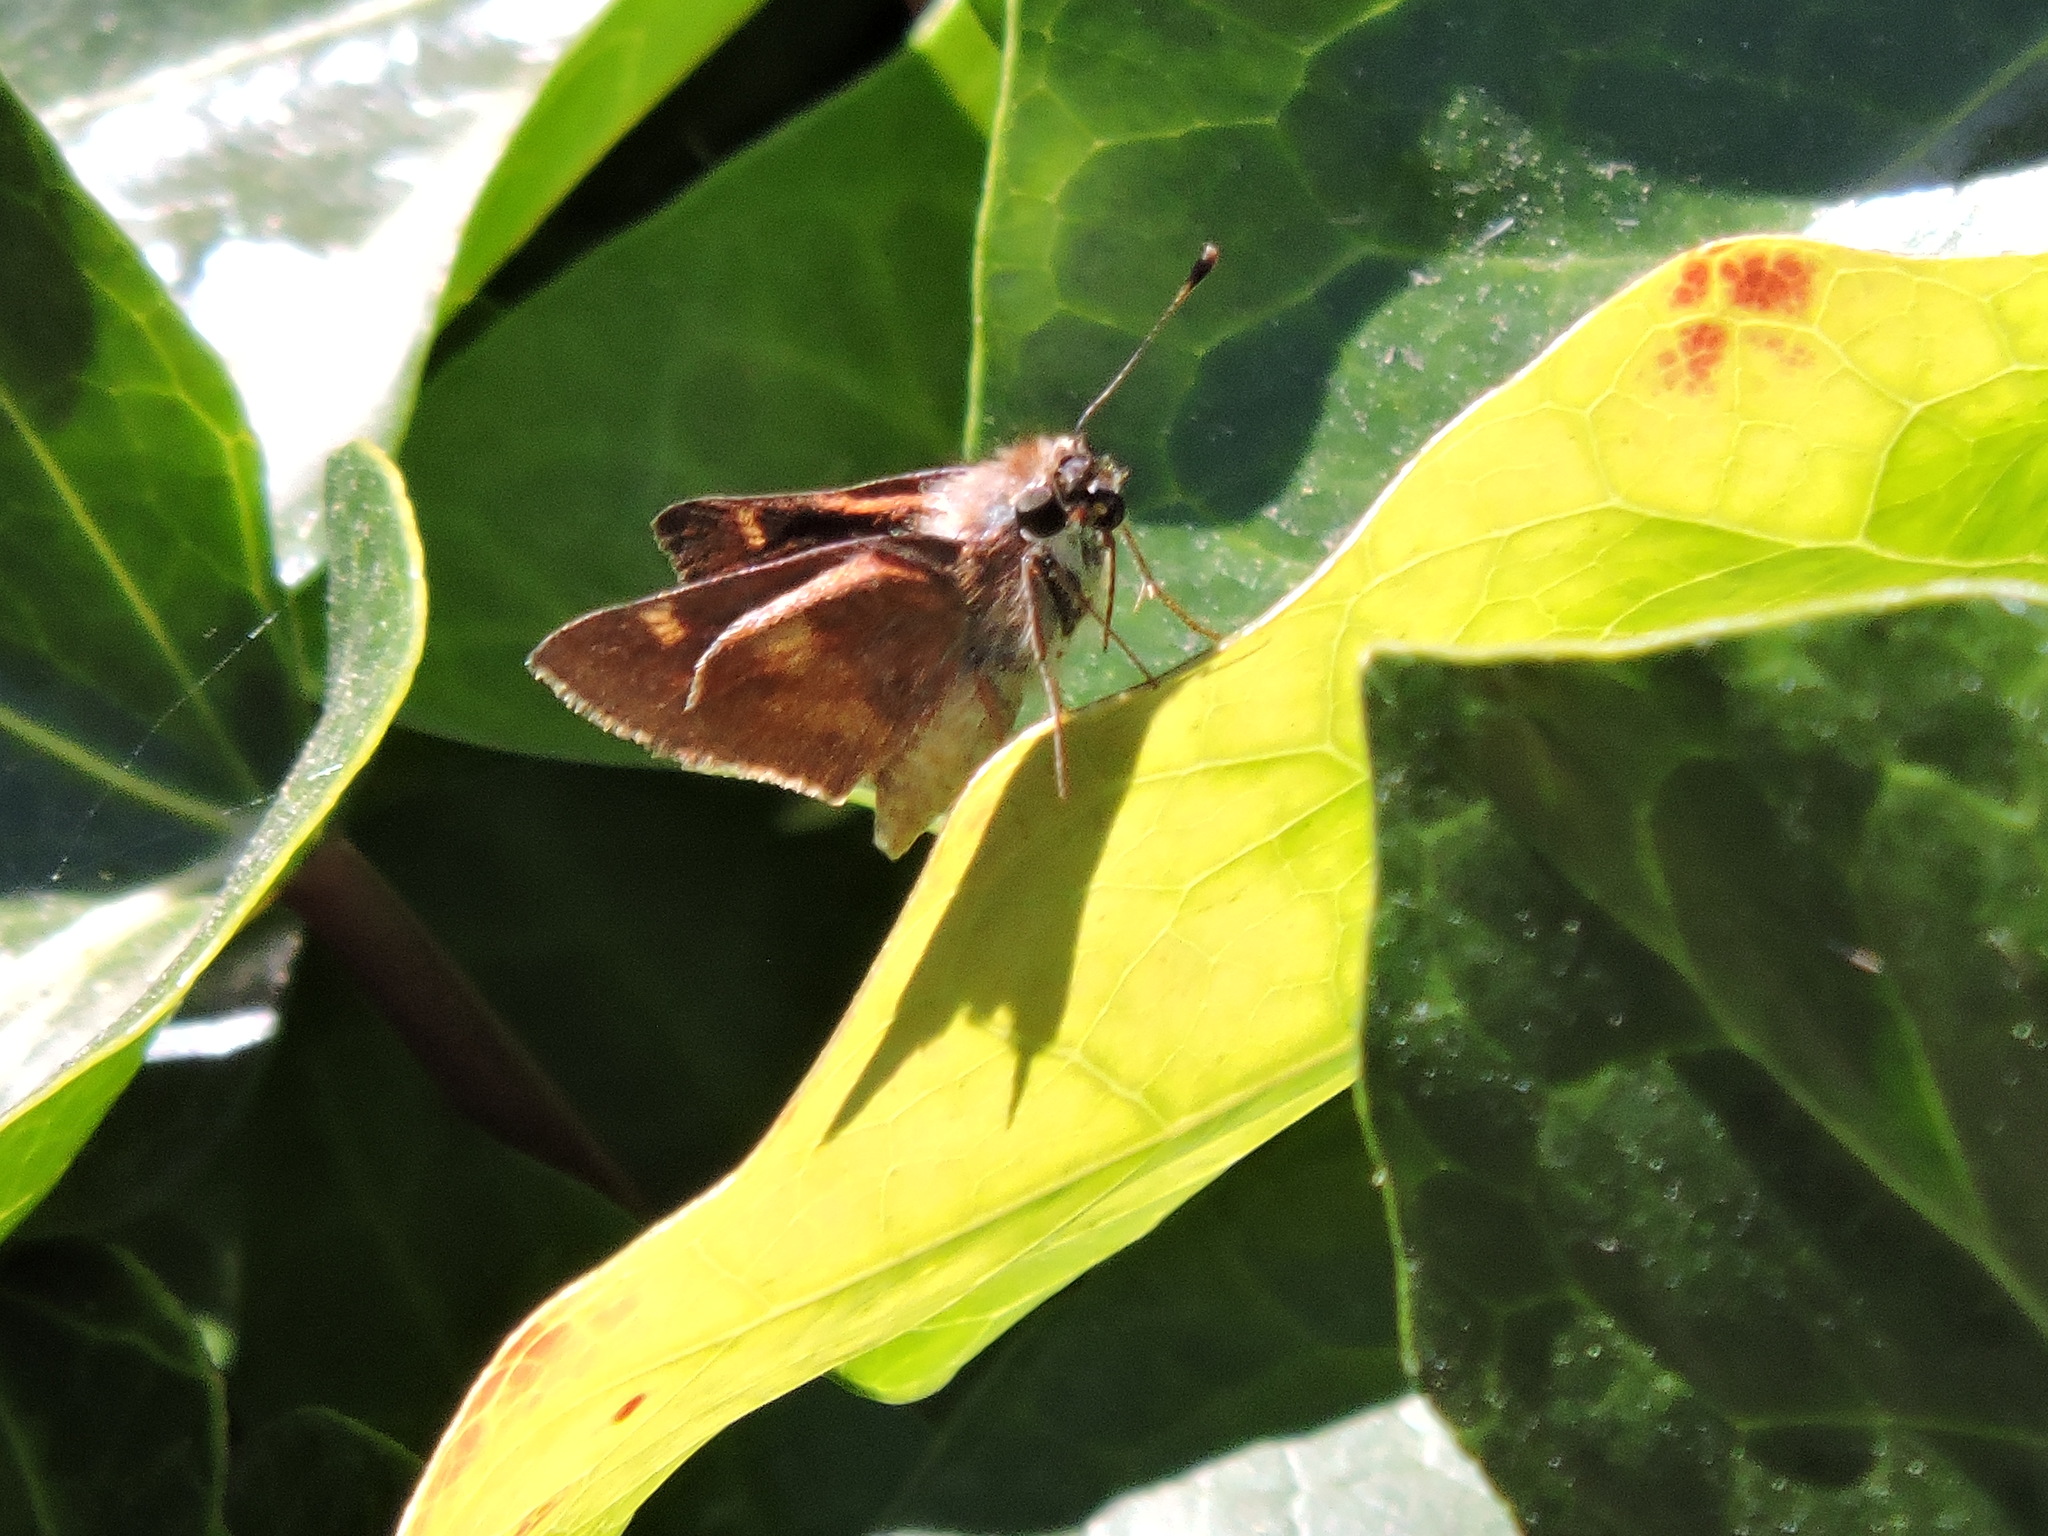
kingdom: Animalia
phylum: Arthropoda
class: Insecta
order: Lepidoptera
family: Hesperiidae
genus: Lon
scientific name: Lon melane
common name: Umber skipper
